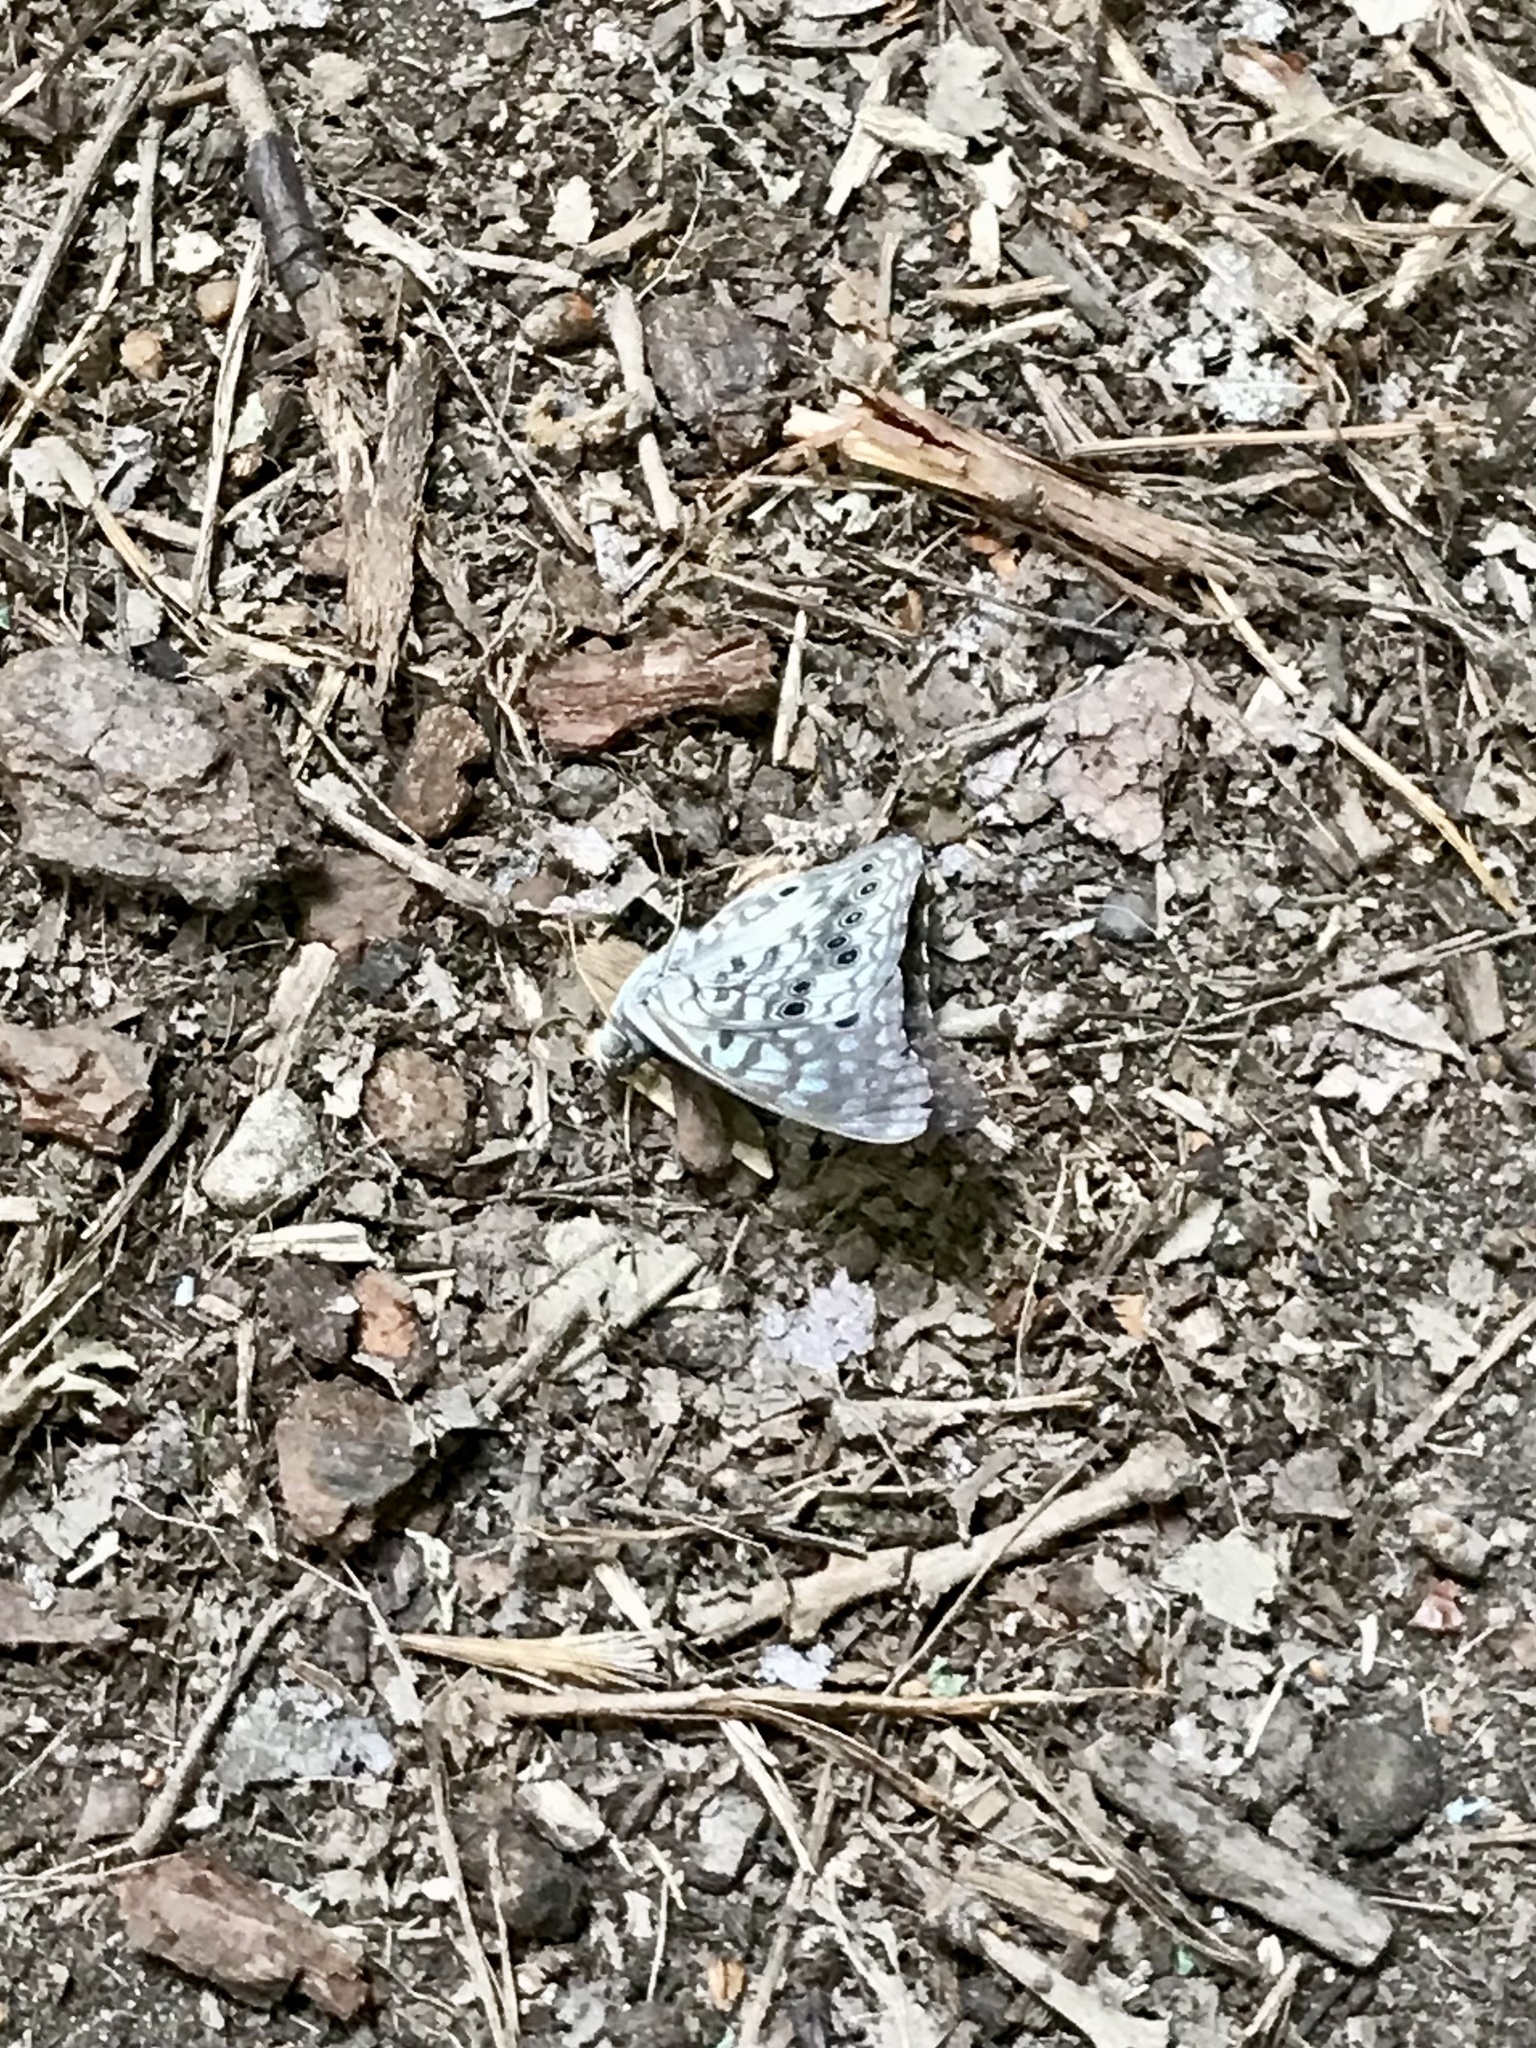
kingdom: Animalia
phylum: Arthropoda
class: Insecta
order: Lepidoptera
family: Nymphalidae
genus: Asterocampa
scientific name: Asterocampa celtis
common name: Hackberry emperor
